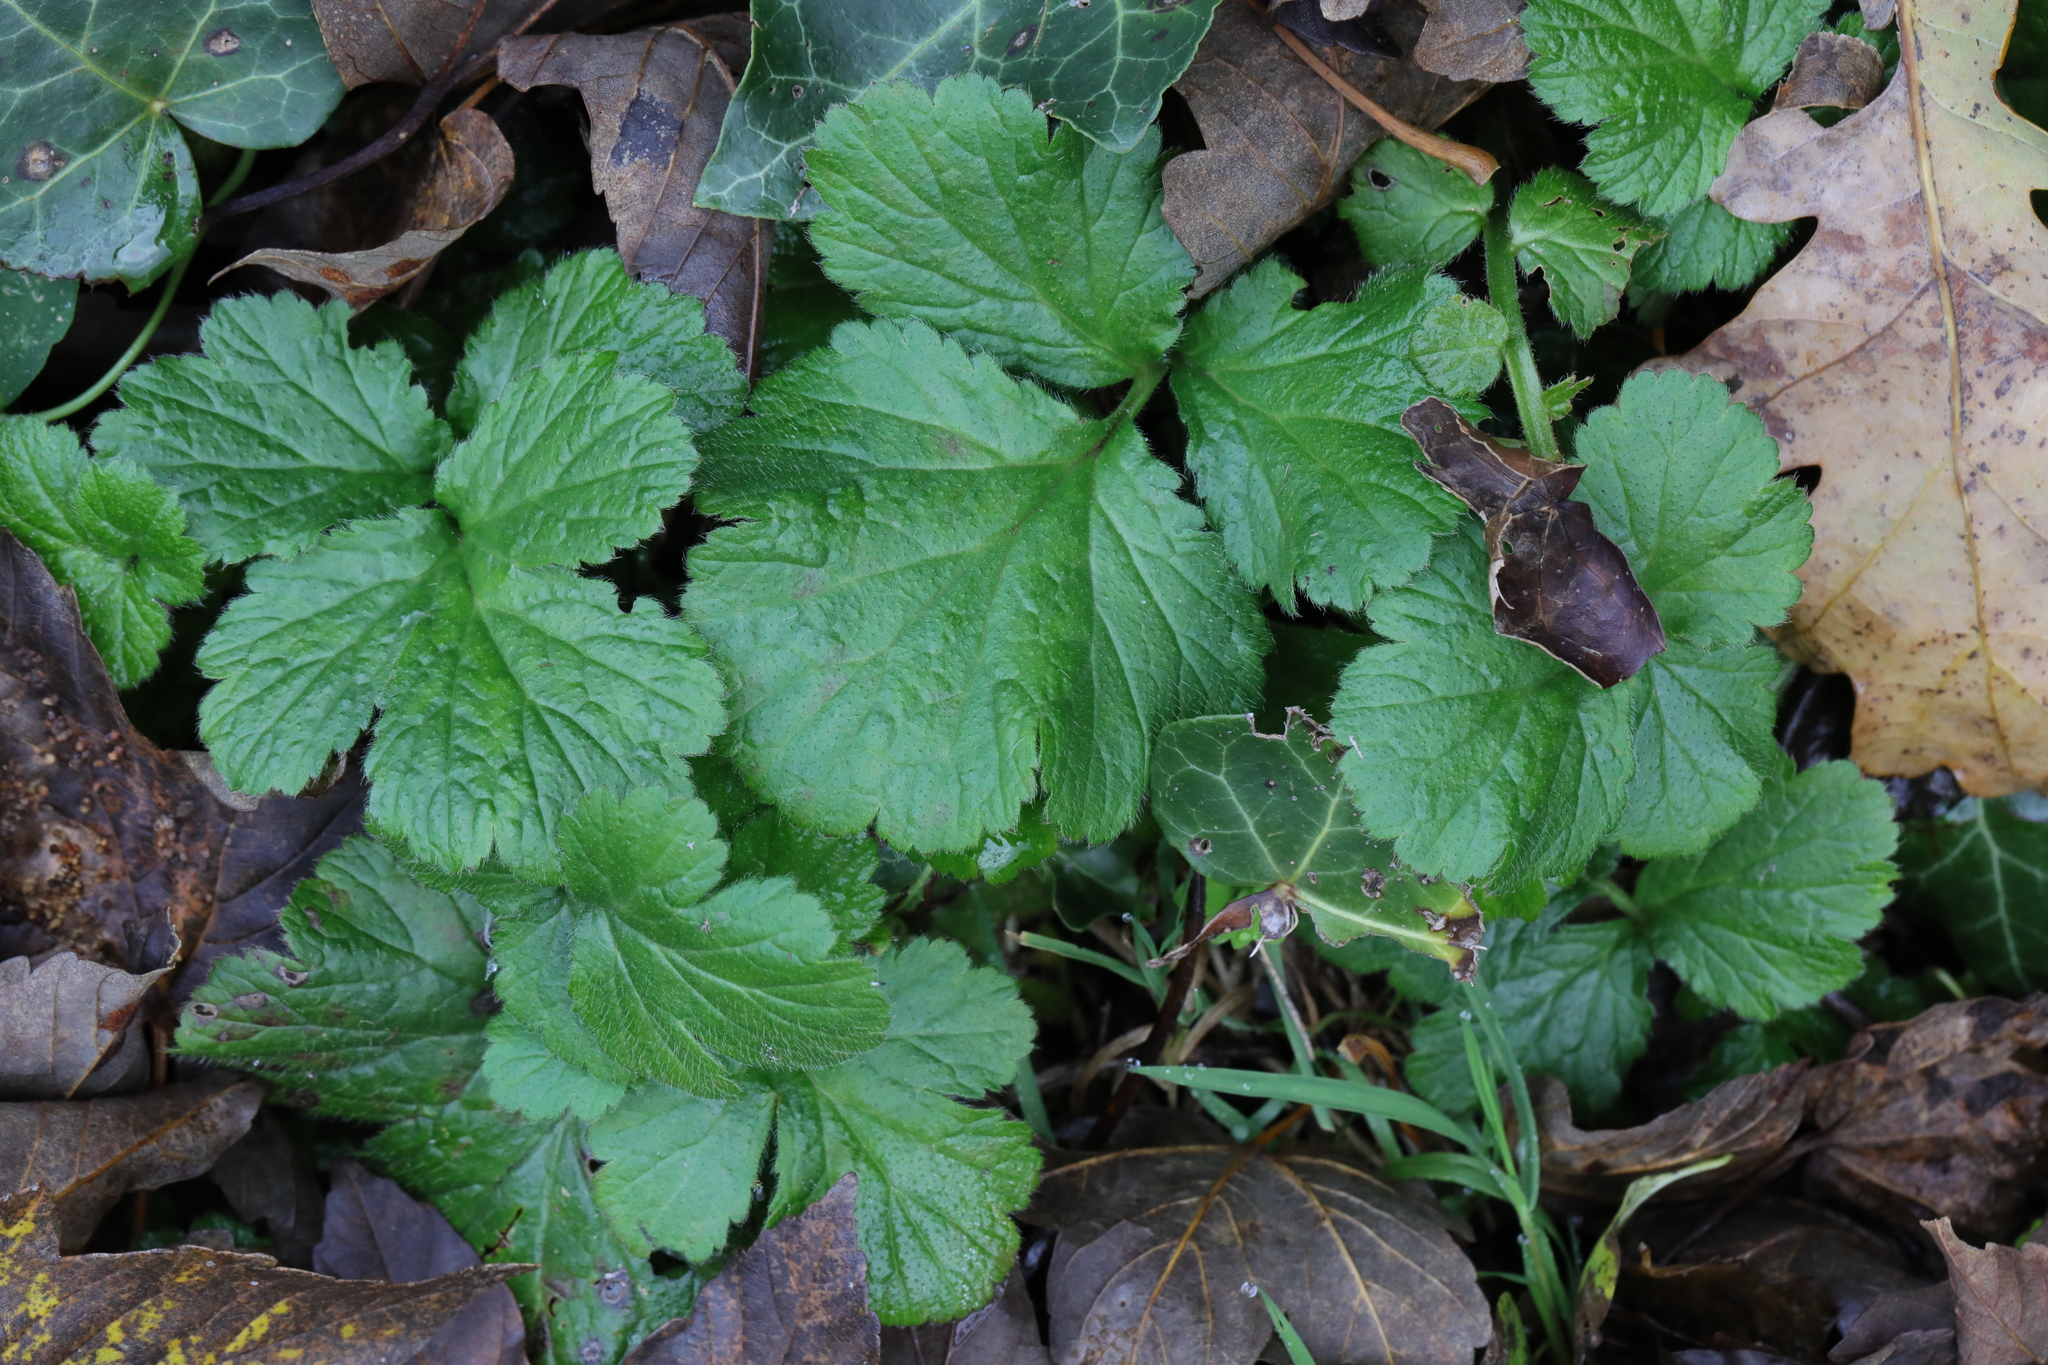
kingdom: Plantae
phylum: Tracheophyta
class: Magnoliopsida
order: Rosales
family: Rosaceae
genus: Geum
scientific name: Geum urbanum
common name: Wood avens
